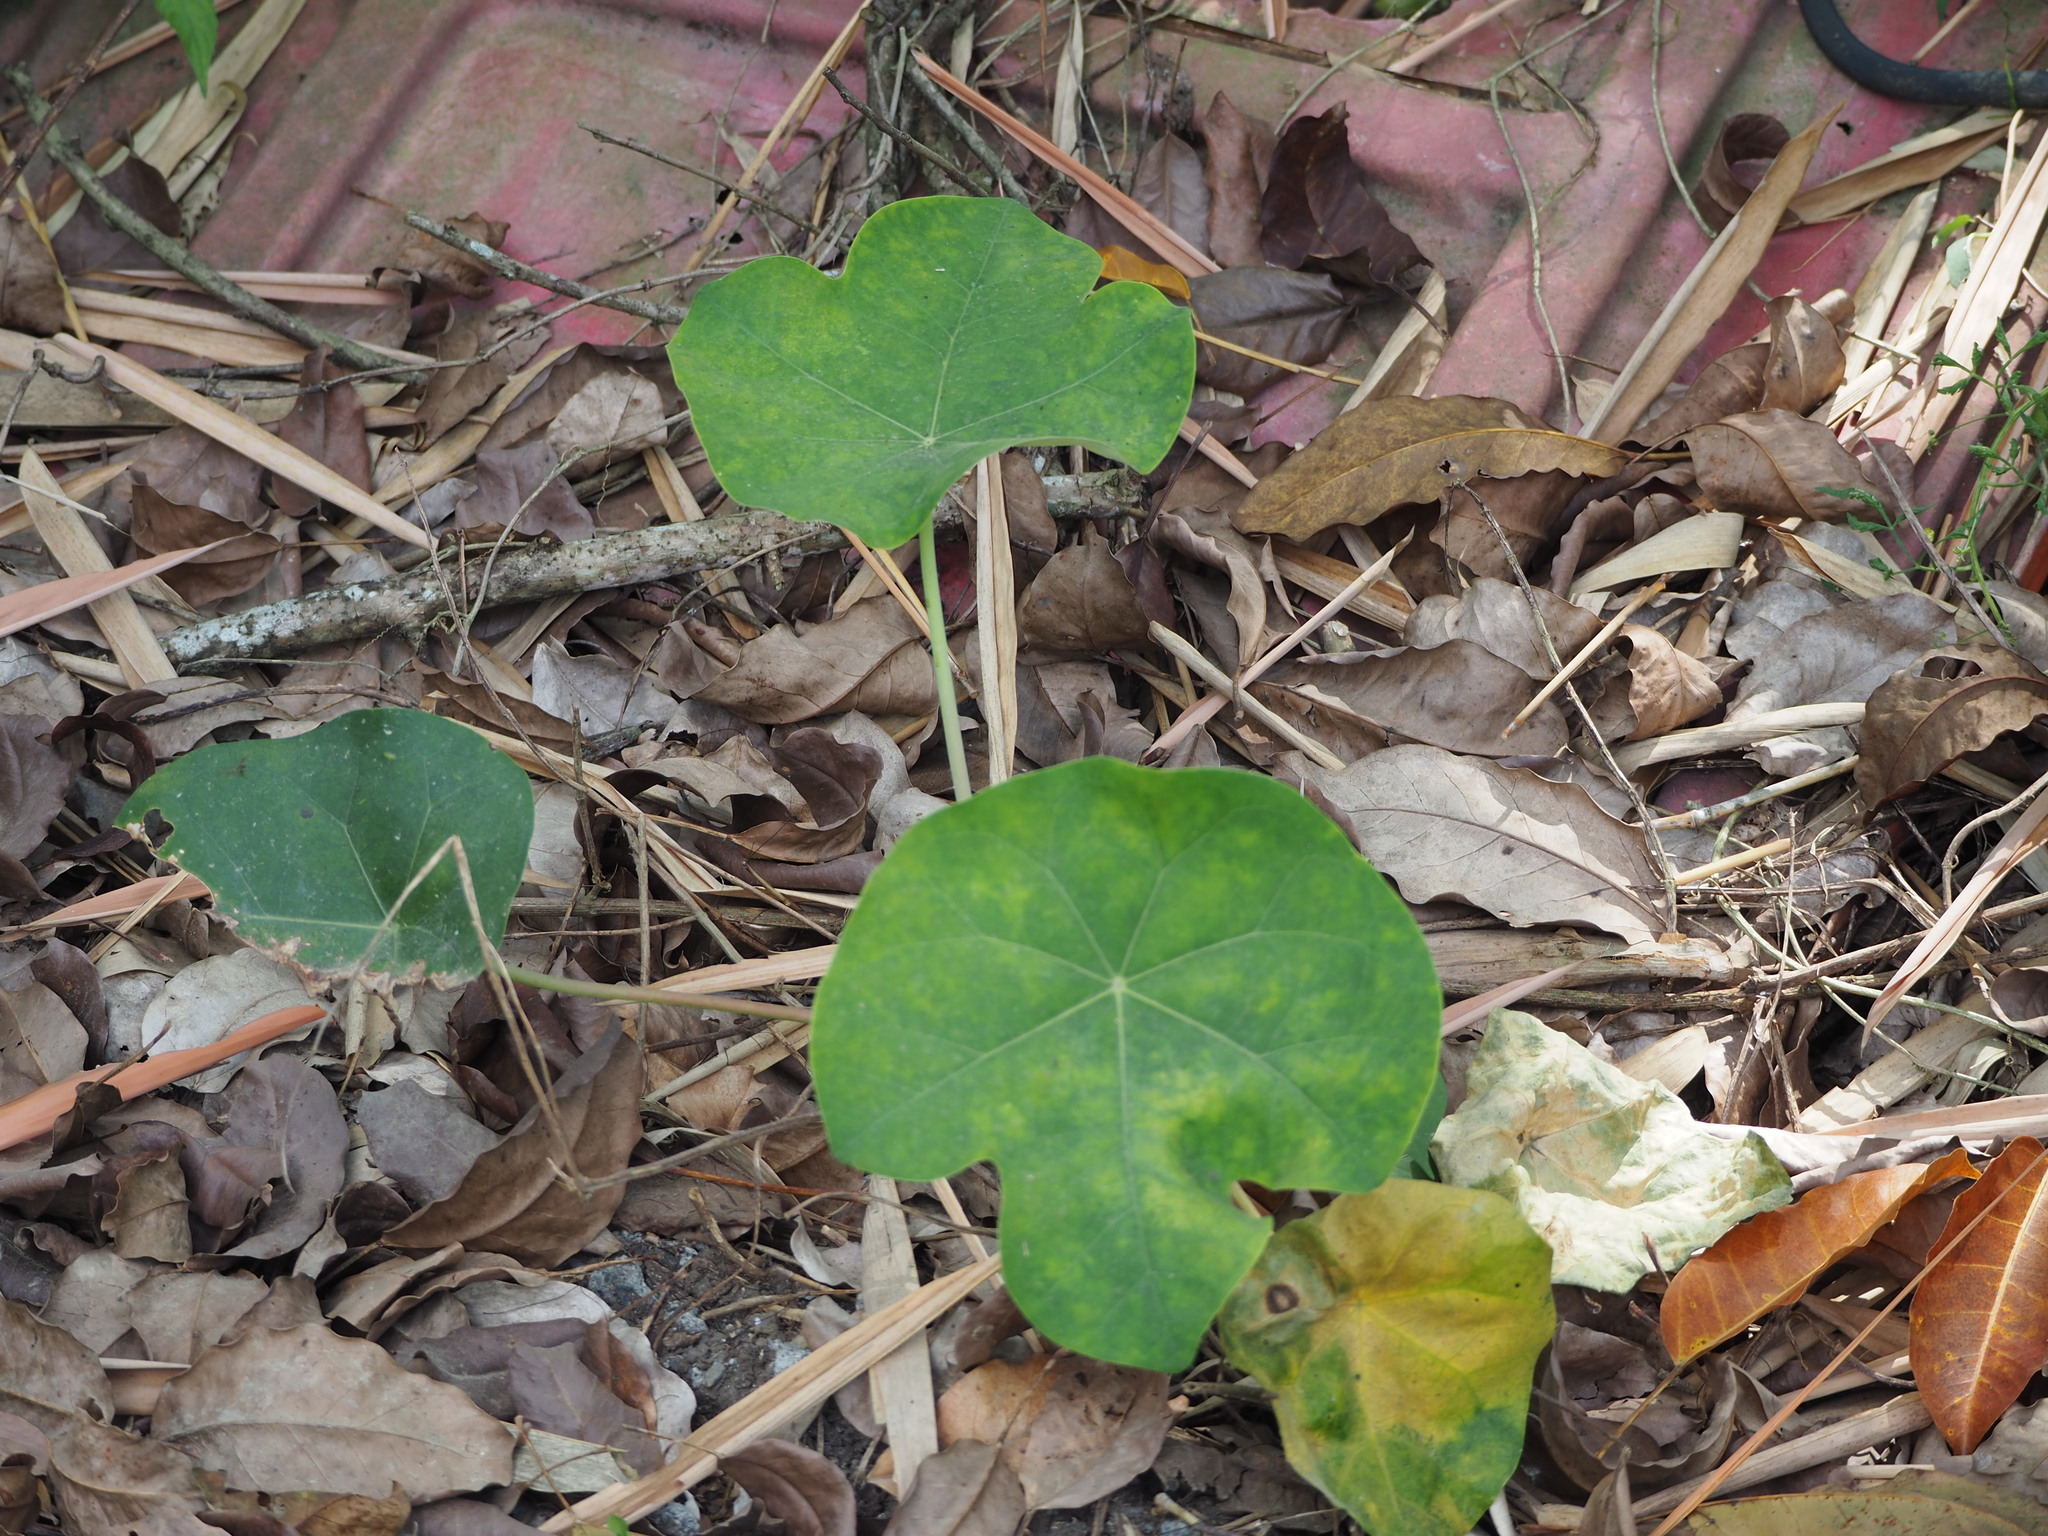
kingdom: Plantae
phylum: Tracheophyta
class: Magnoliopsida
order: Malpighiales
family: Euphorbiaceae
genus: Jatropha
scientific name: Jatropha curcas
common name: Barbados nut
